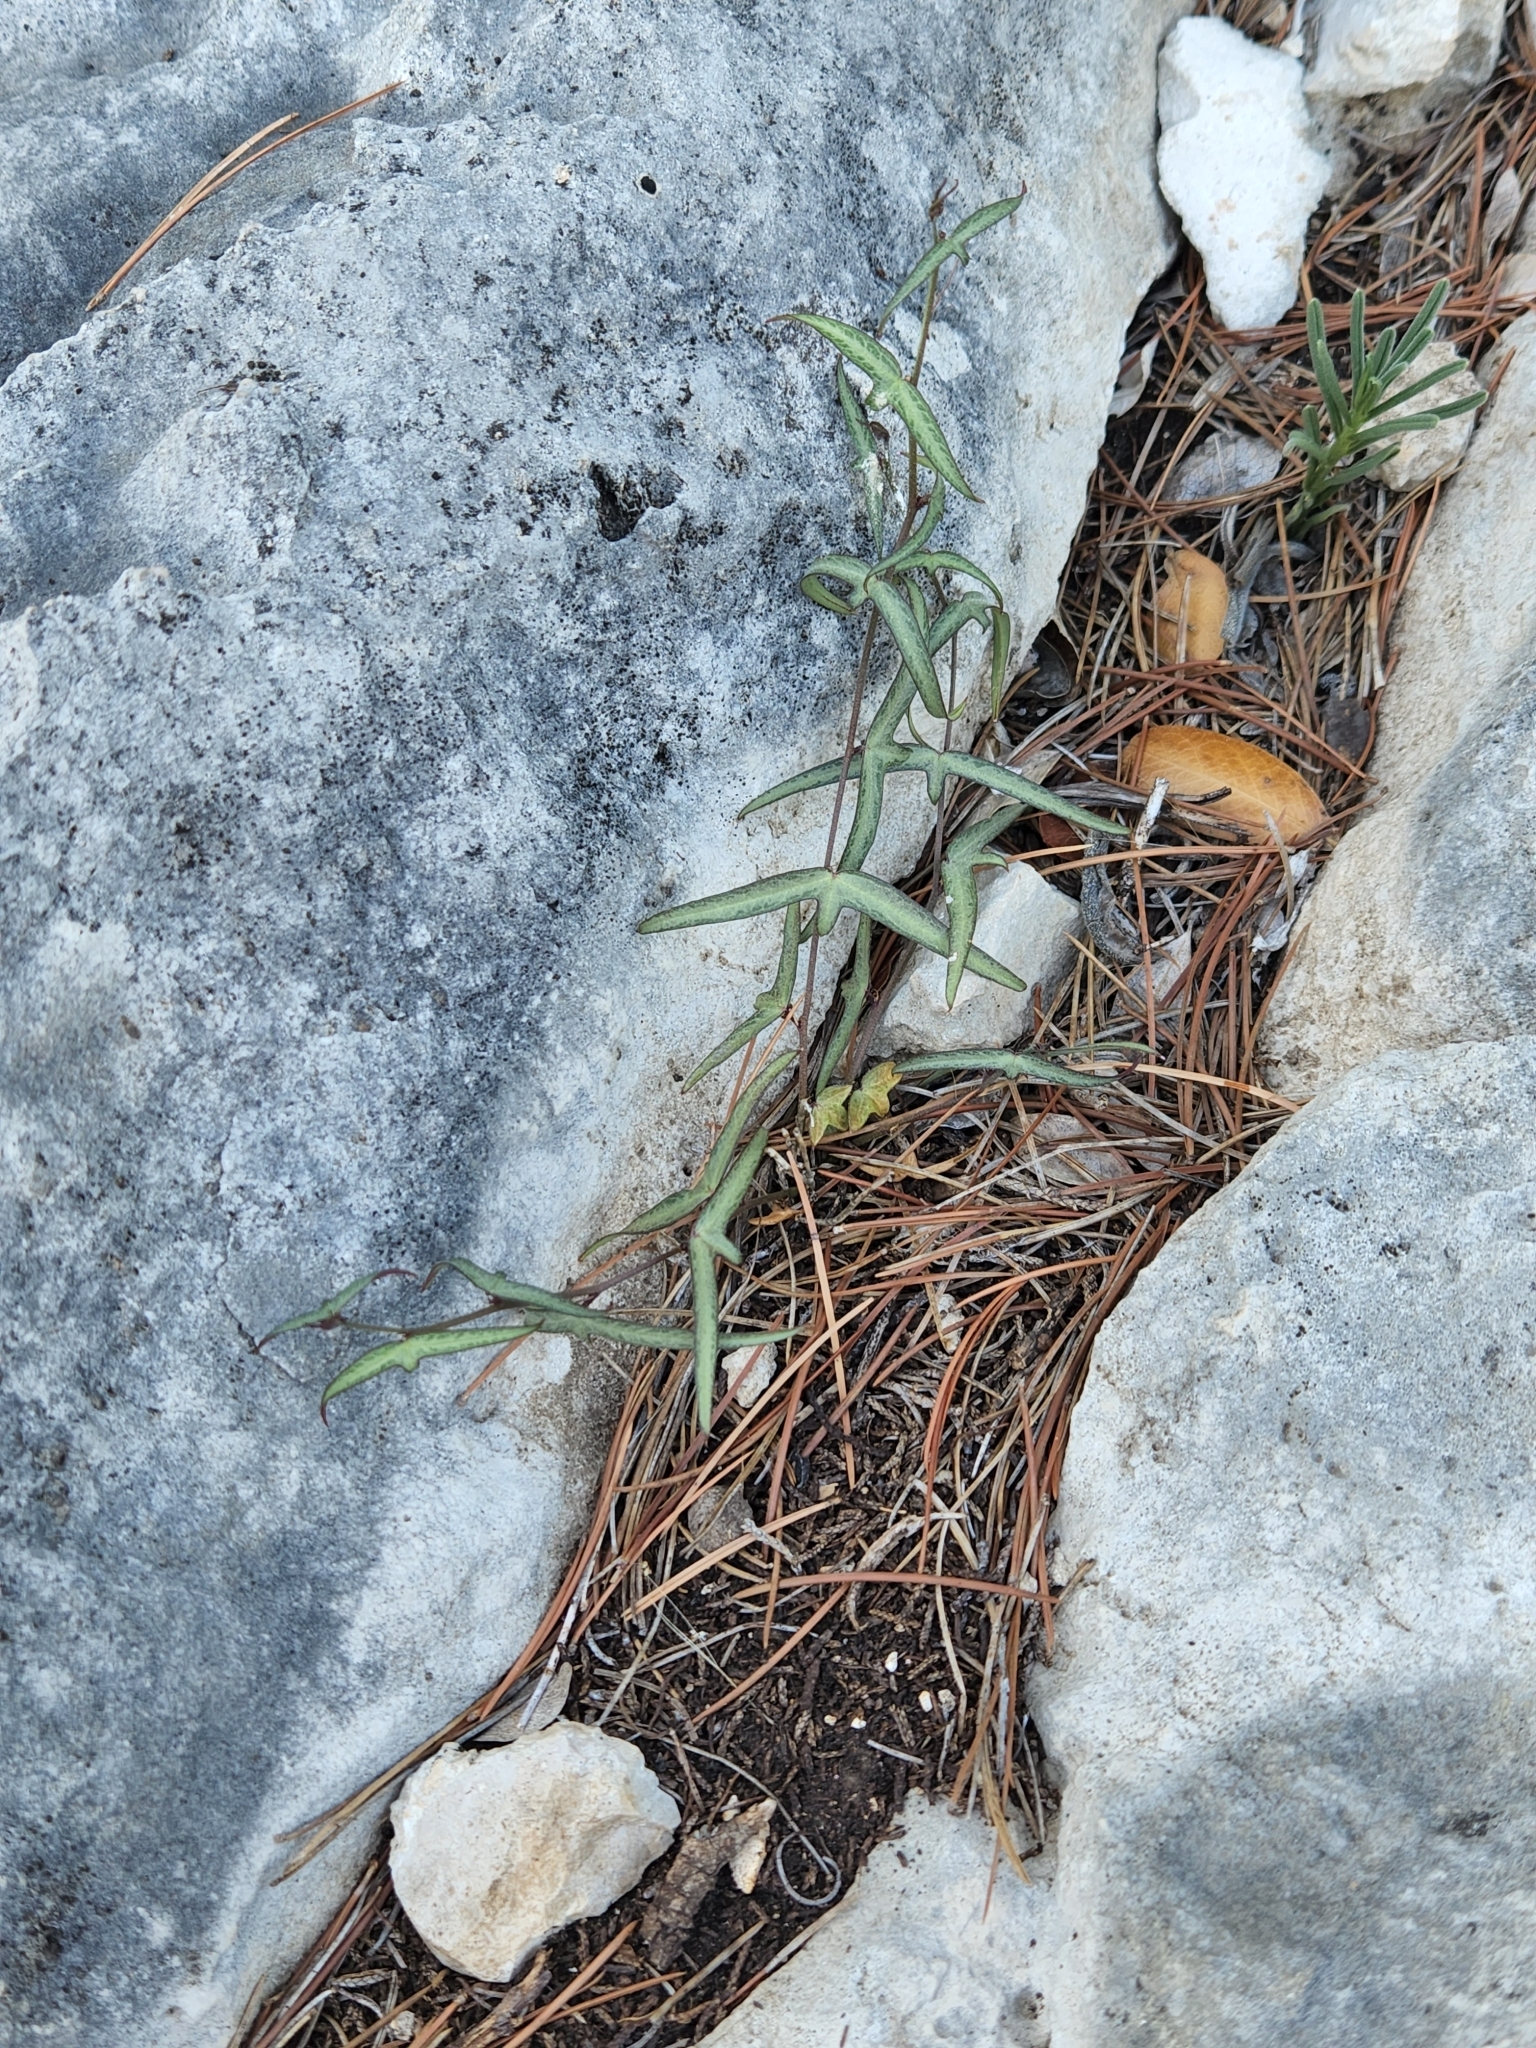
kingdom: Plantae
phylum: Tracheophyta
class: Magnoliopsida
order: Malpighiales
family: Passifloraceae
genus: Passiflora
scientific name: Passiflora tenuiloba
